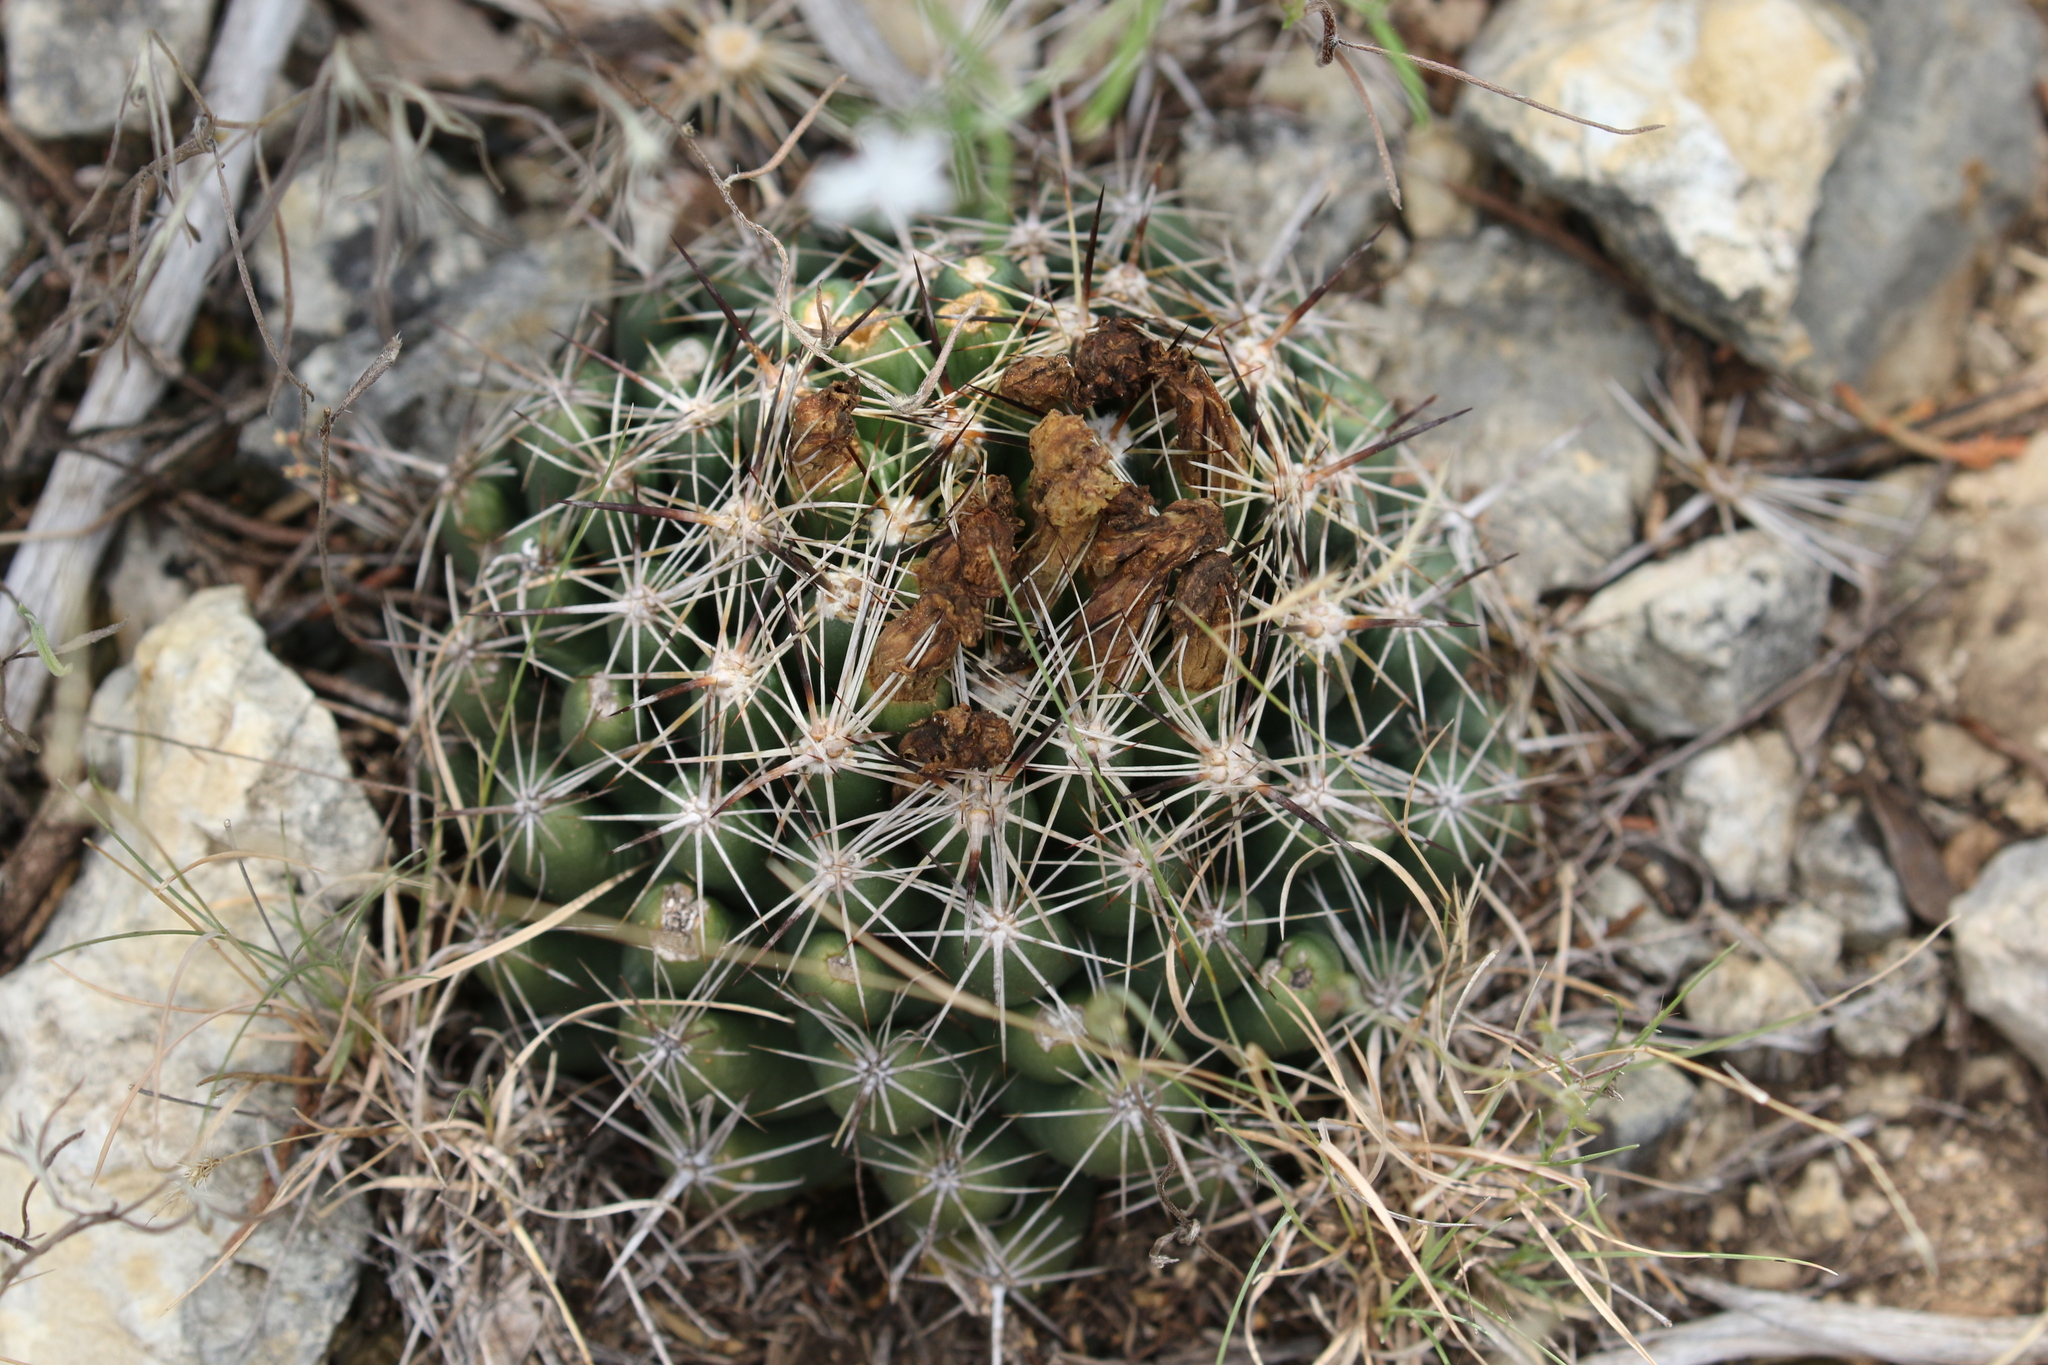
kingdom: Plantae
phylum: Tracheophyta
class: Magnoliopsida
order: Caryophyllales
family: Cactaceae
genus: Coryphantha
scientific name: Coryphantha sulcata
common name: Finger cactus
